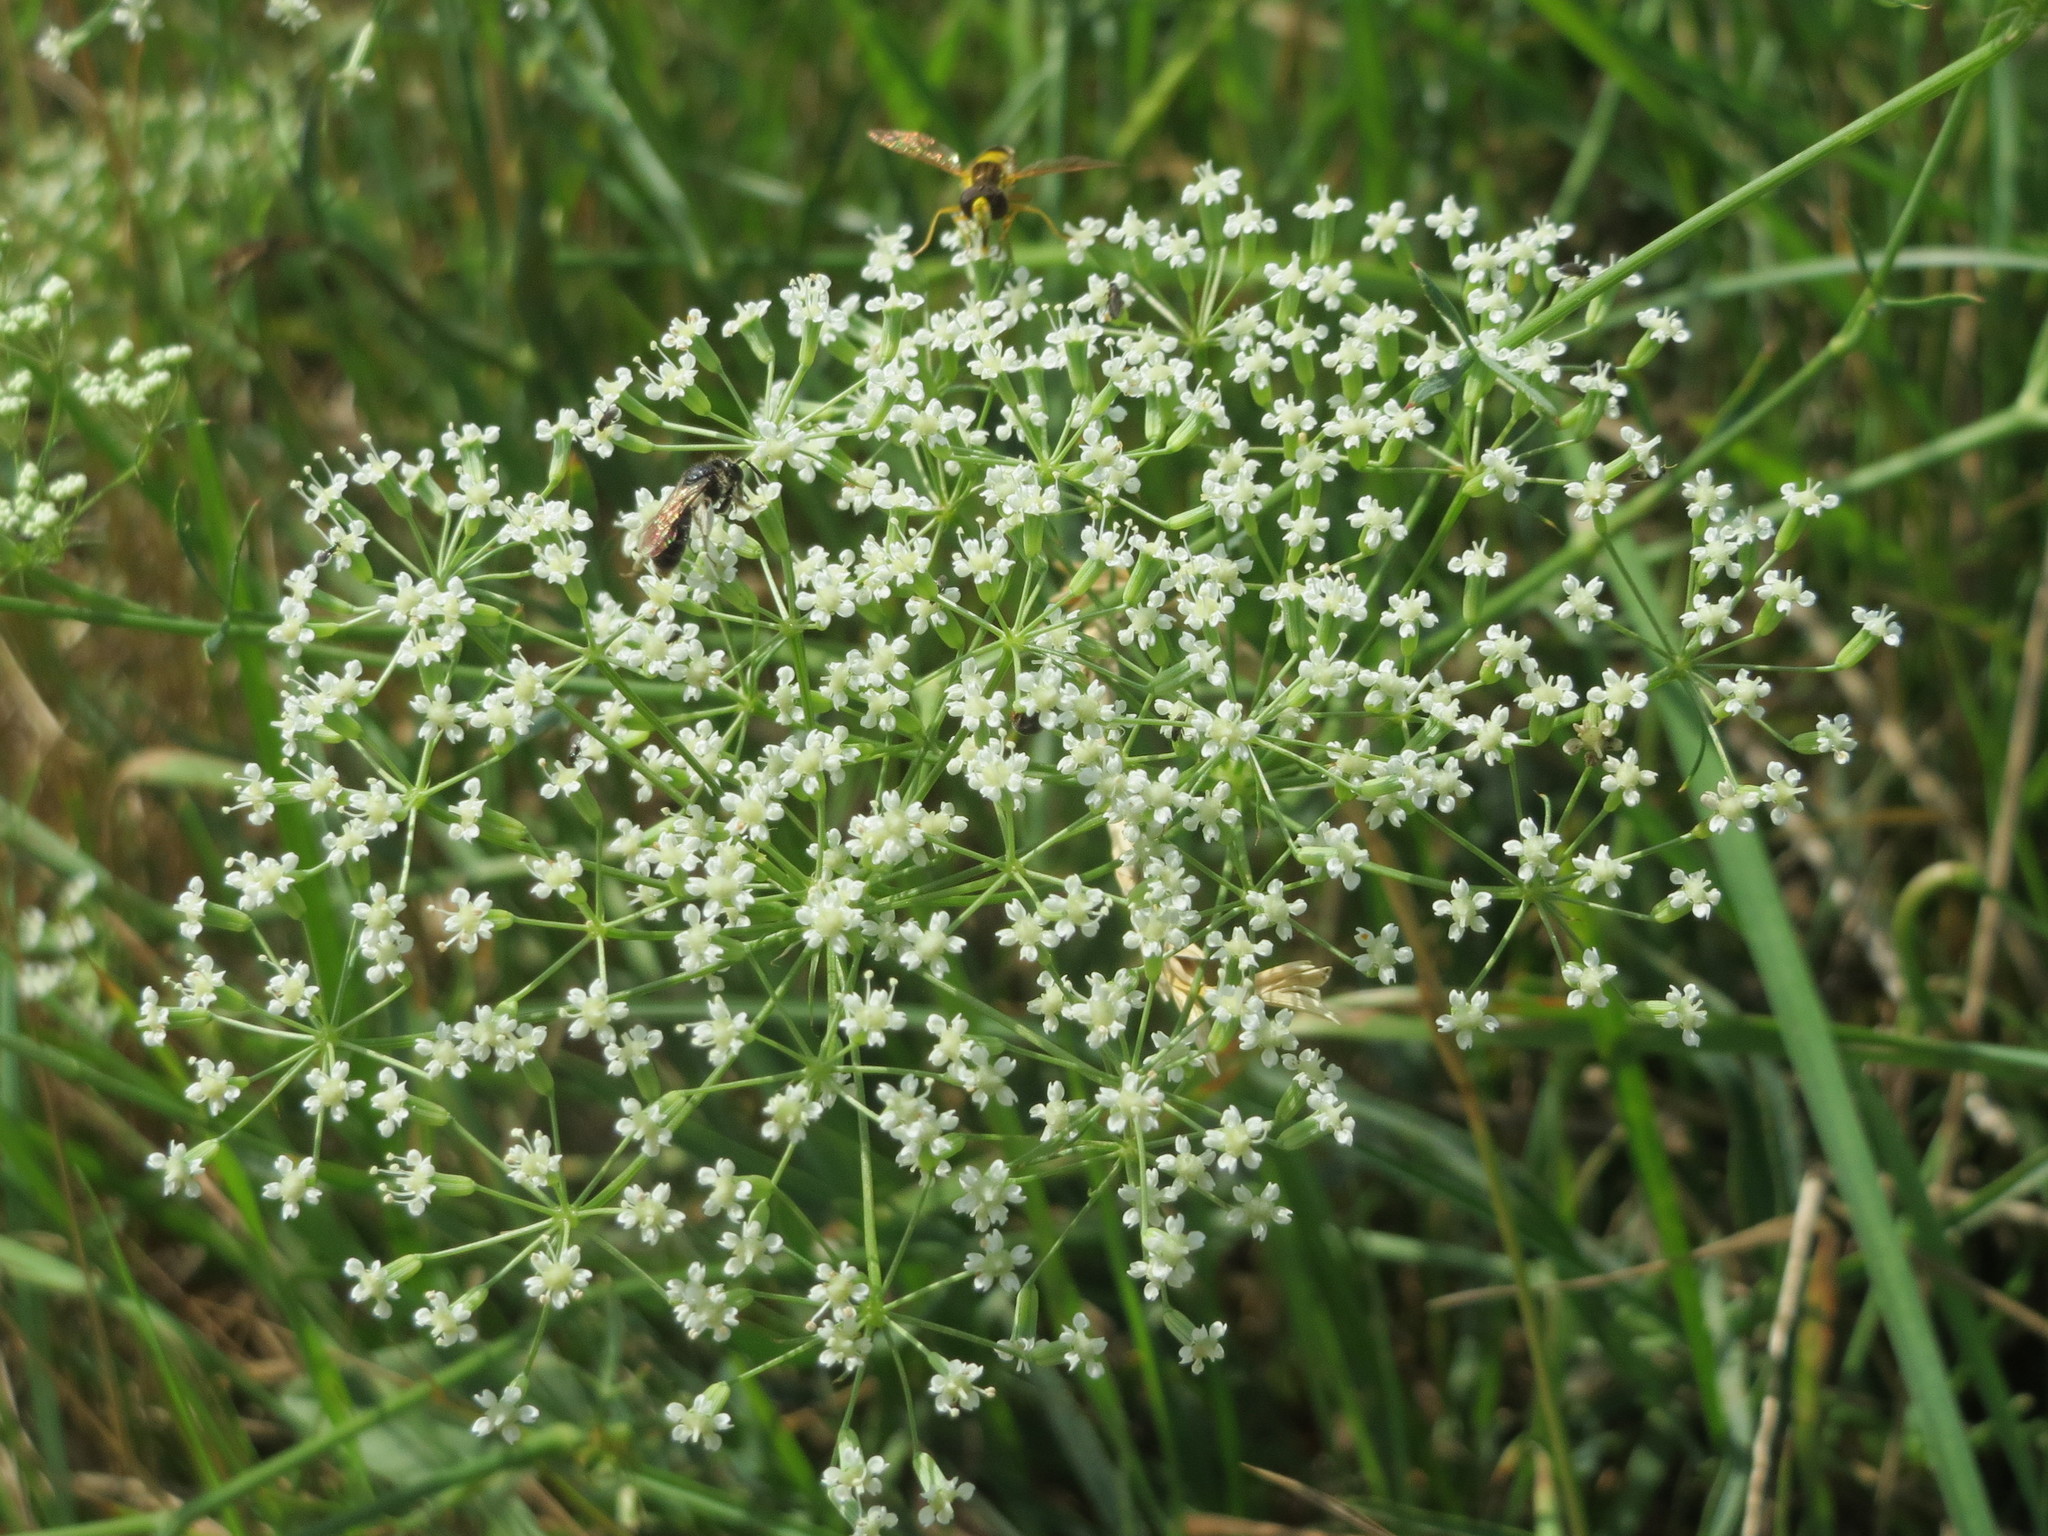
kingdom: Plantae
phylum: Tracheophyta
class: Magnoliopsida
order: Apiales
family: Apiaceae
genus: Falcaria
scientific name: Falcaria vulgaris
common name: Longleaf
